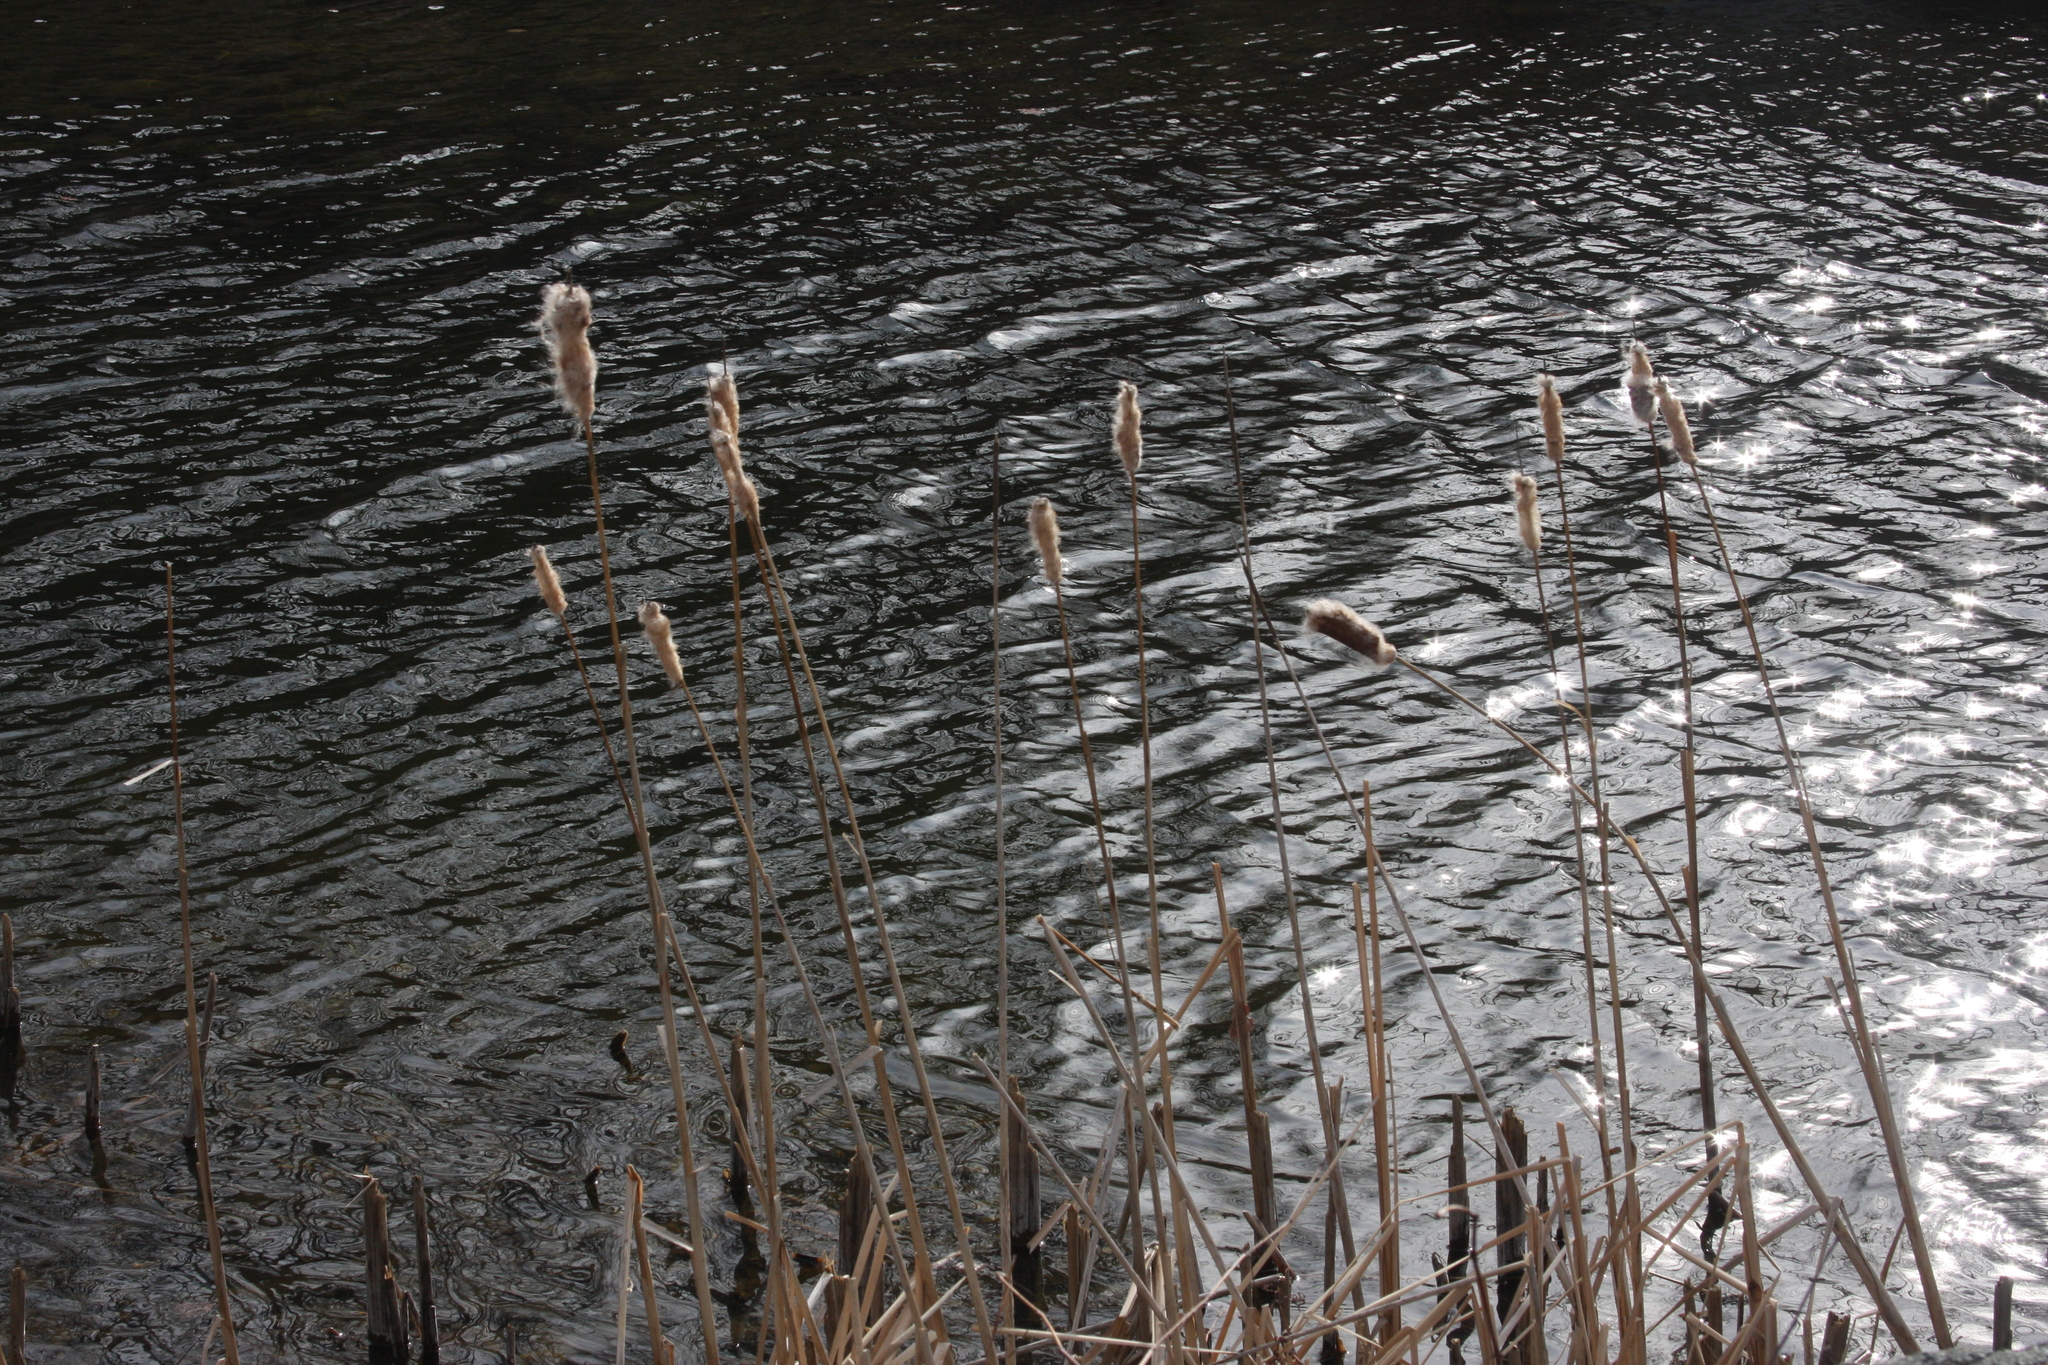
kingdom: Plantae
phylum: Tracheophyta
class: Liliopsida
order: Poales
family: Typhaceae
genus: Typha
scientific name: Typha latifolia
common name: Broadleaf cattail
